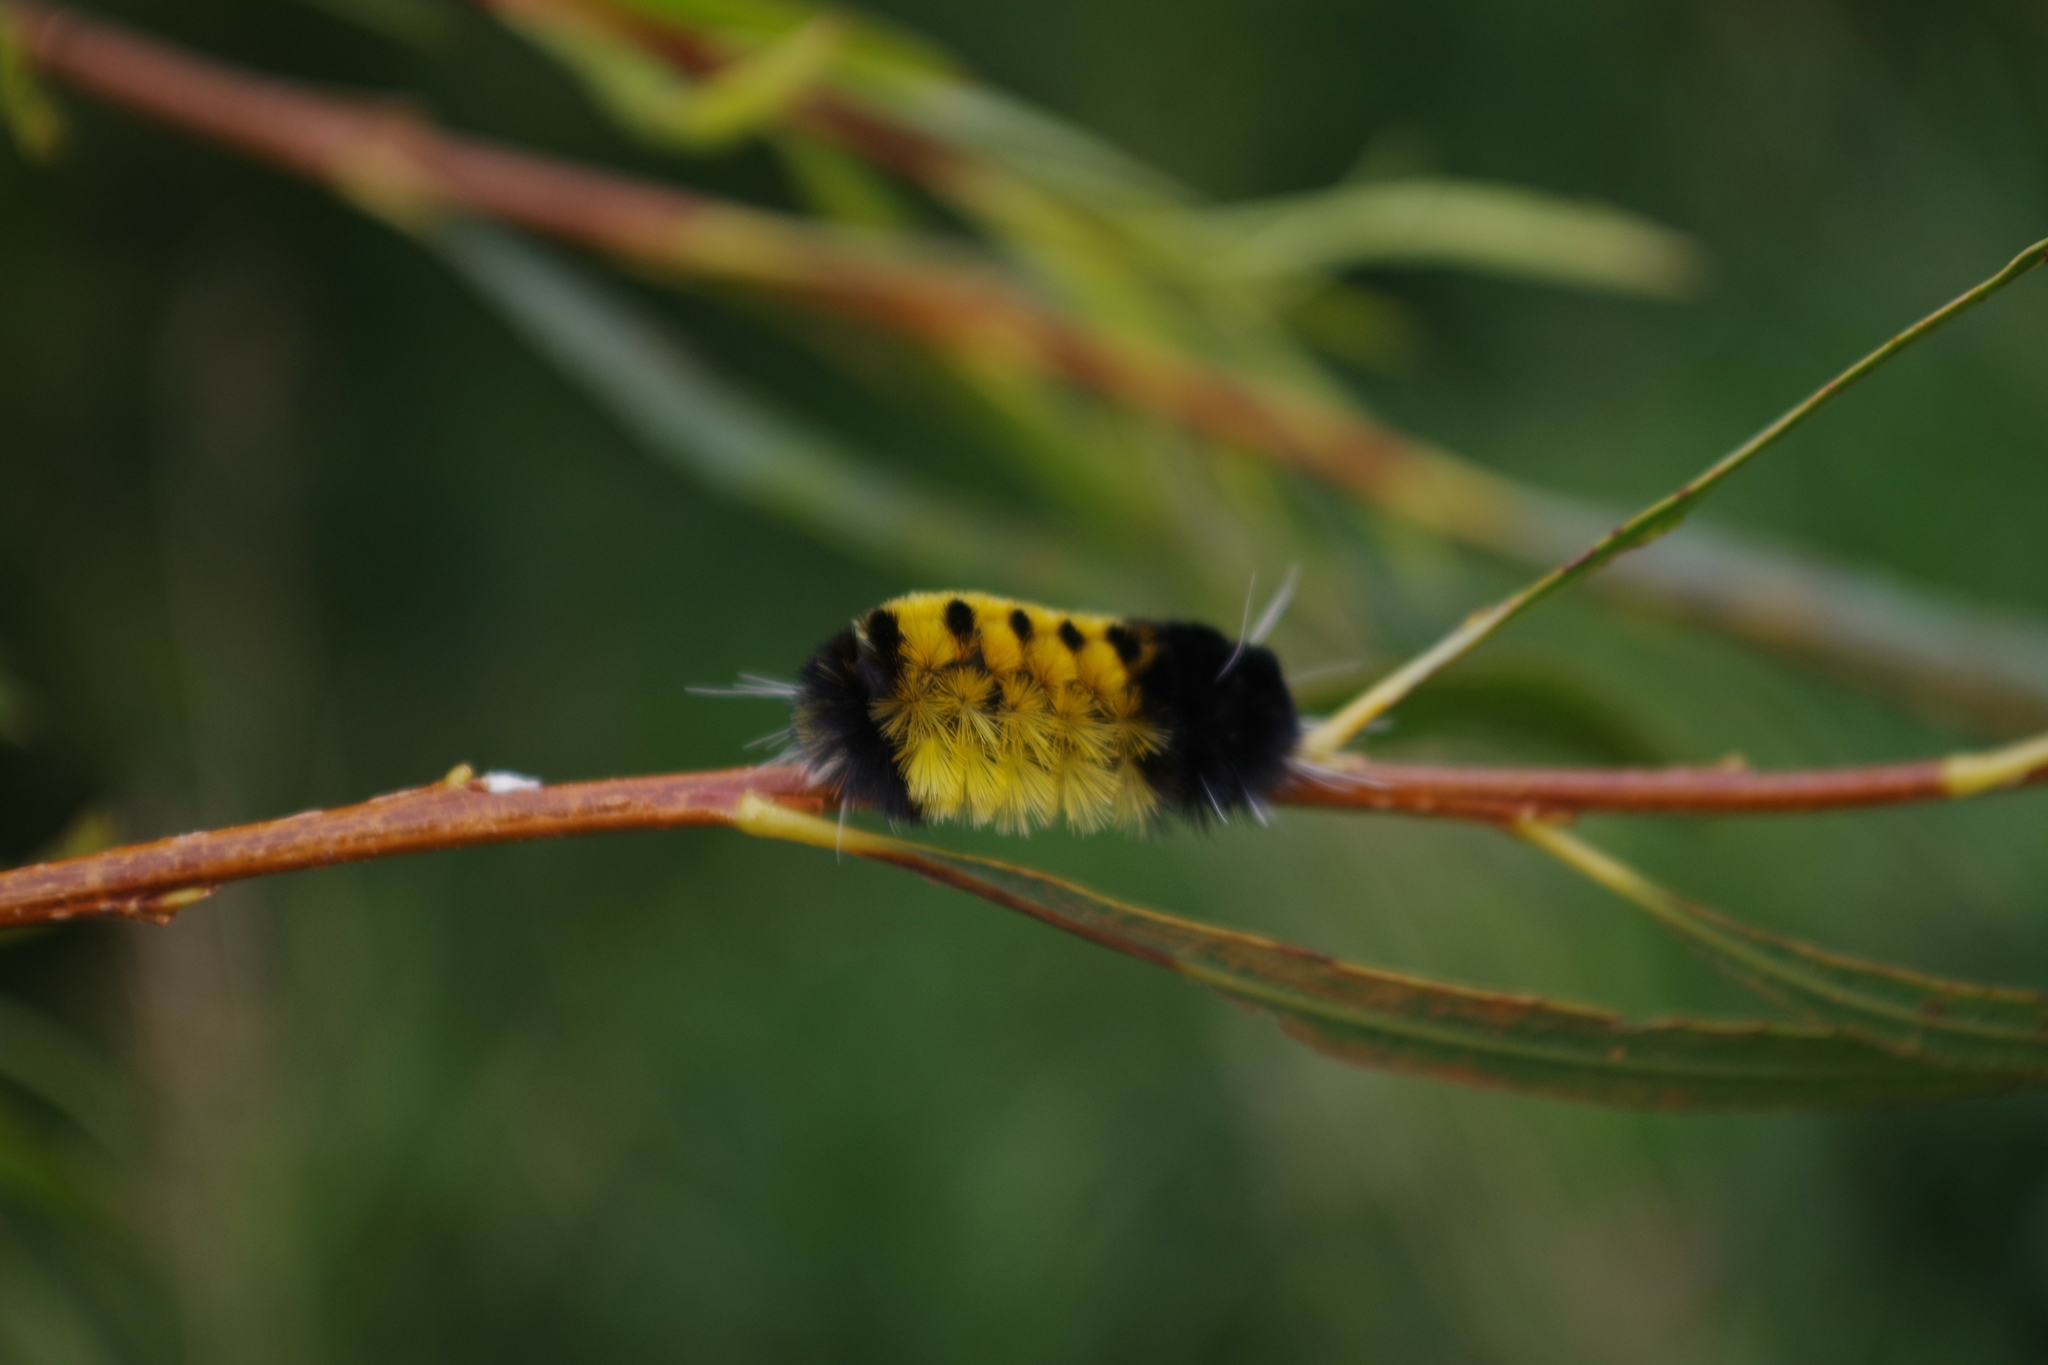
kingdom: Animalia
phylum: Arthropoda
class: Insecta
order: Lepidoptera
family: Erebidae
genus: Lophocampa
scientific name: Lophocampa maculata
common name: Spotted tussock moth
